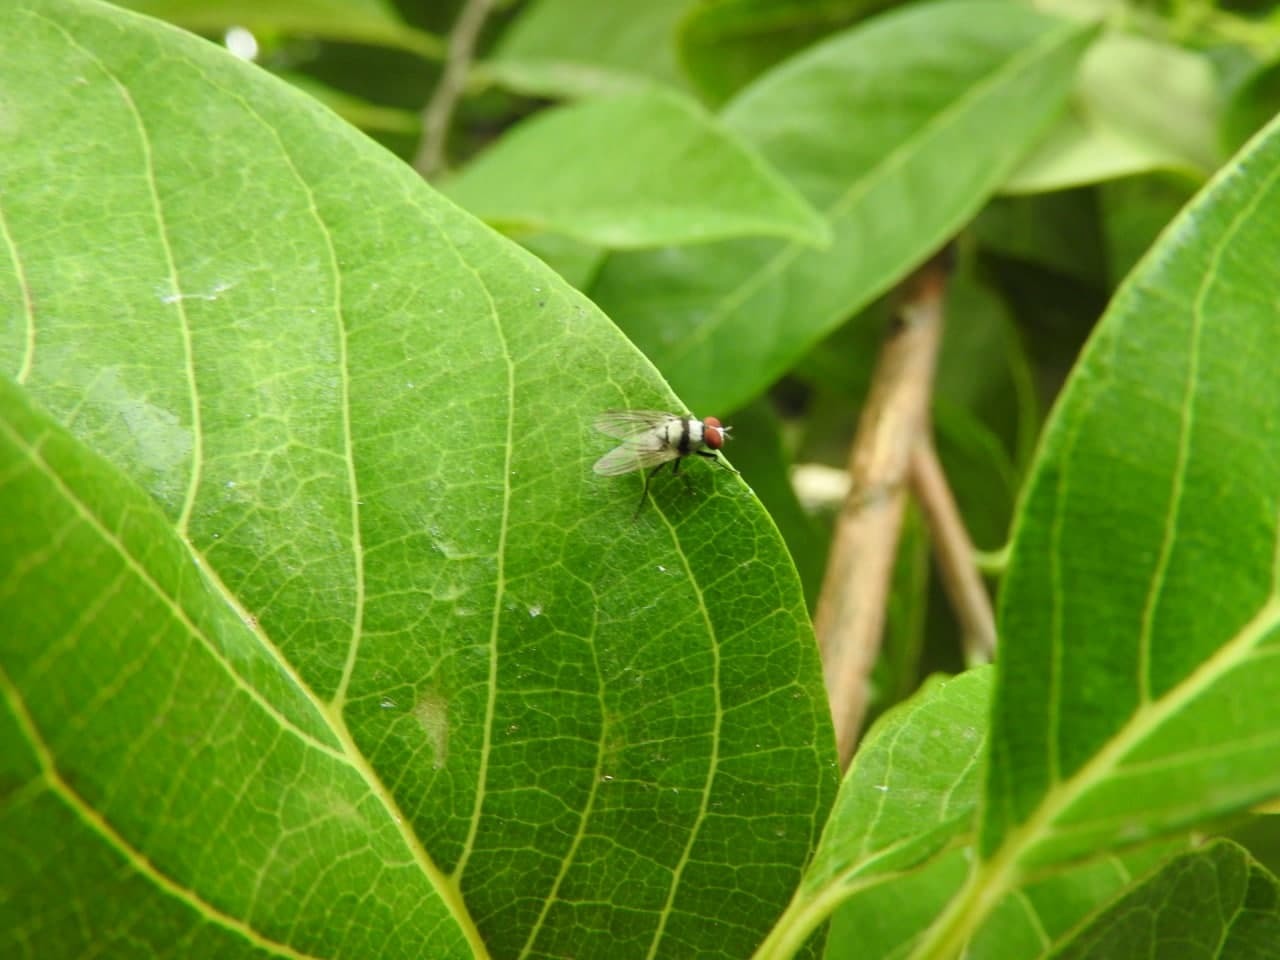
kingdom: Animalia
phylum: Arthropoda
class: Insecta
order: Diptera
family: Anthomyiidae
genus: Anthomyia
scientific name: Anthomyia illocata
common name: Fly
